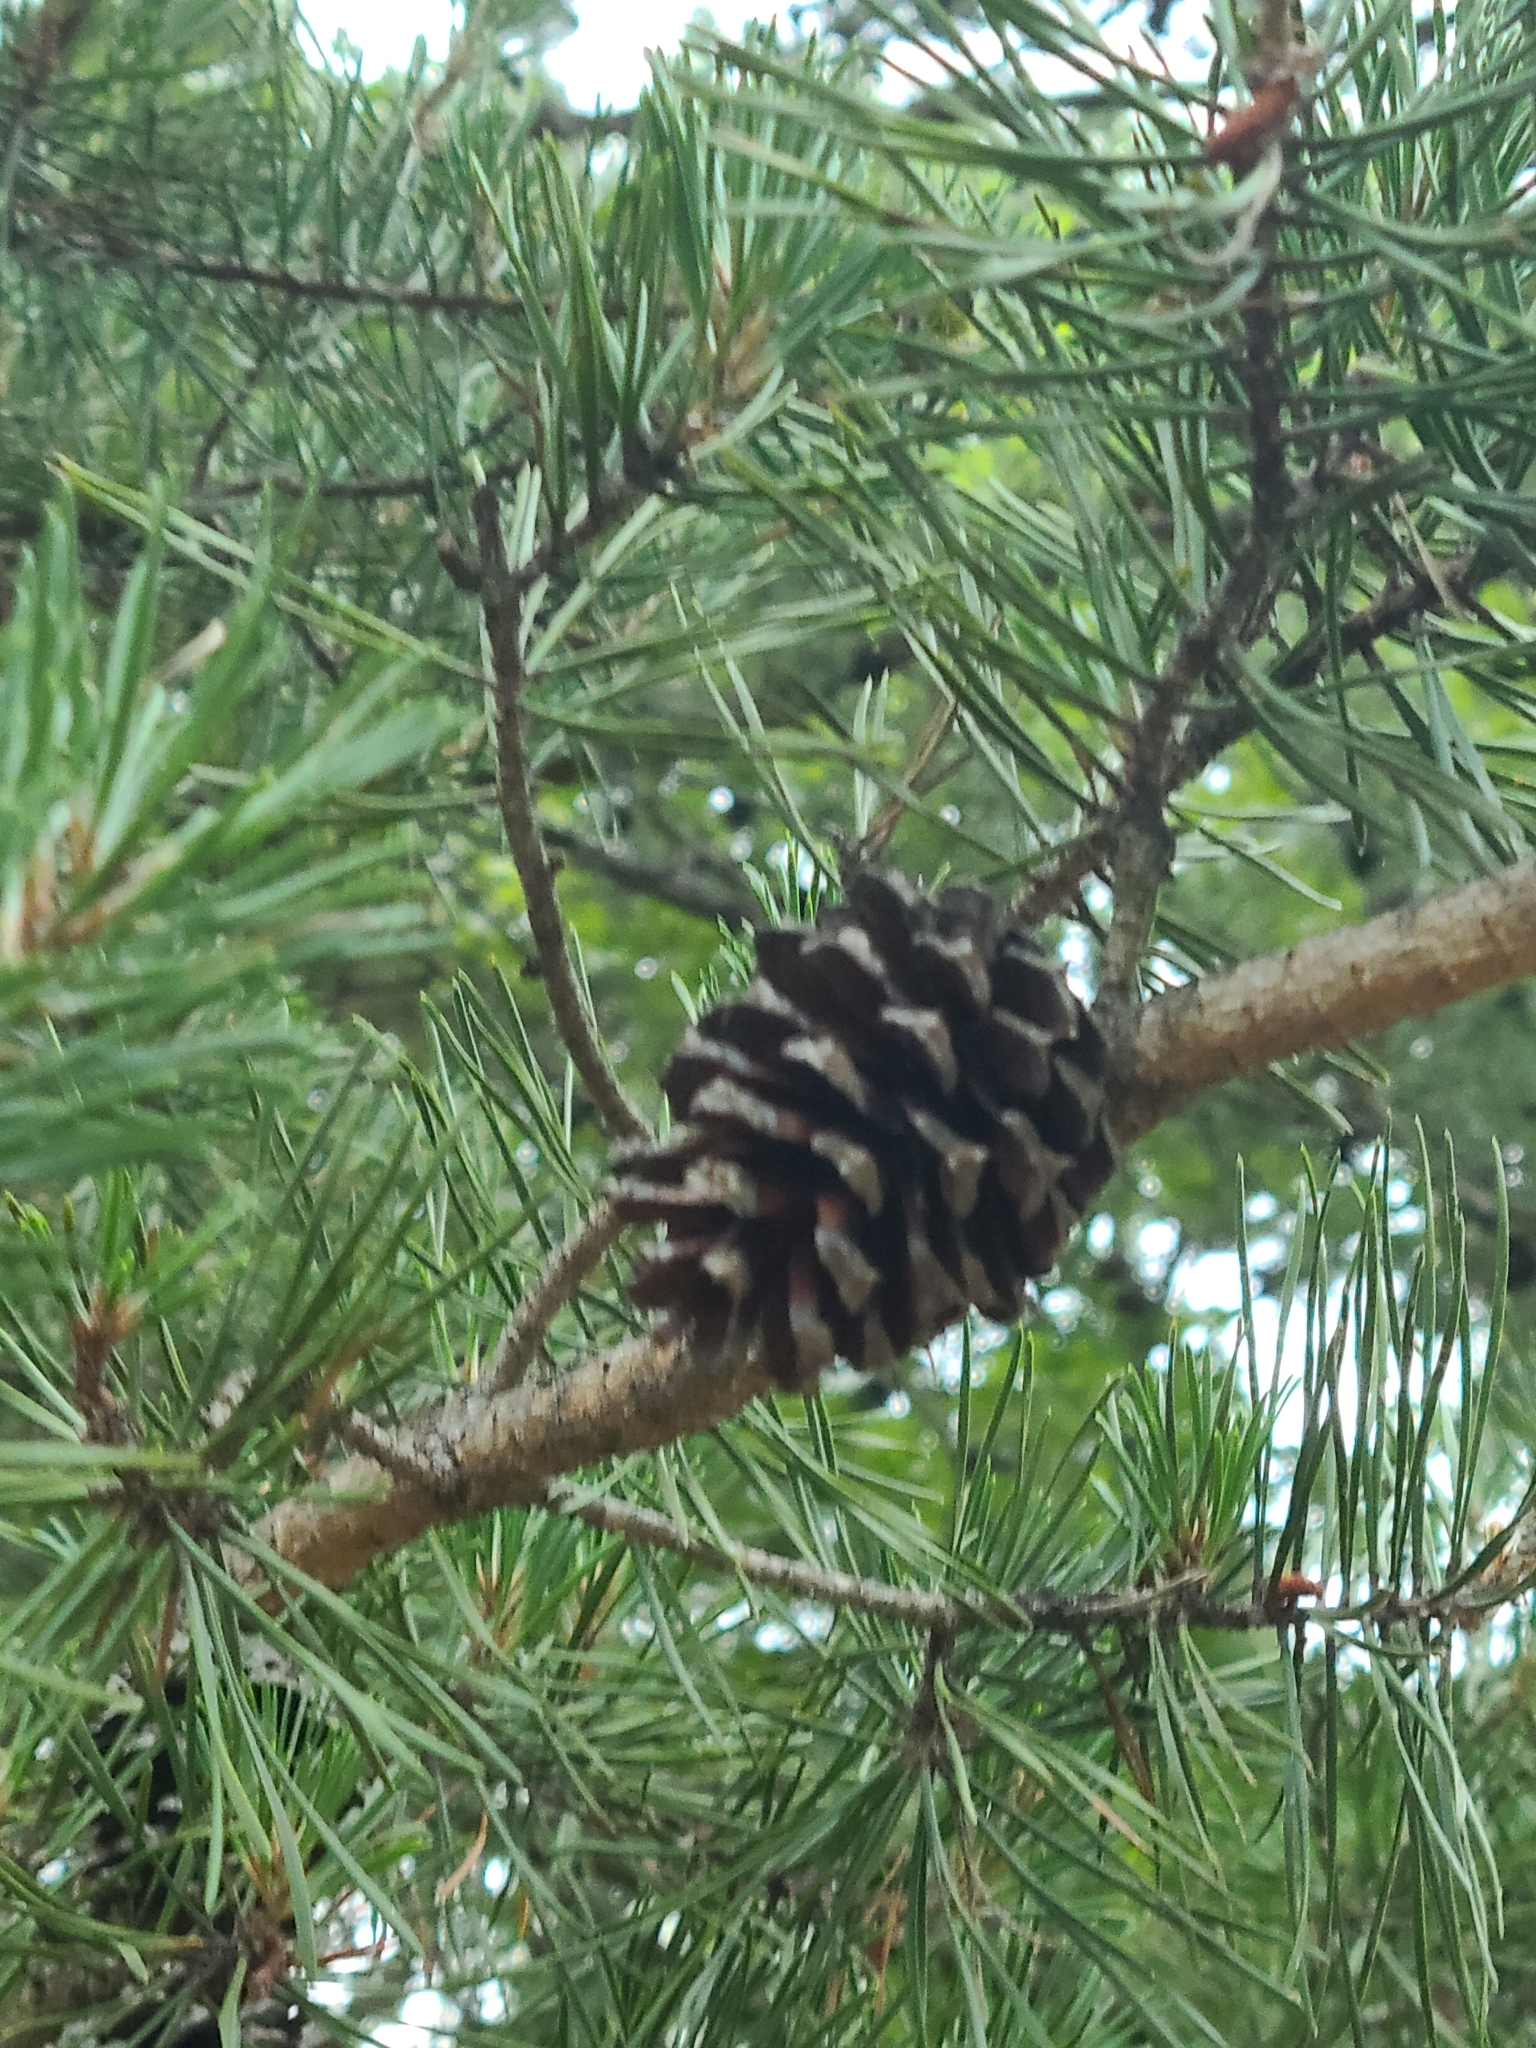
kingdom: Plantae
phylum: Tracheophyta
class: Pinopsida
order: Pinales
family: Pinaceae
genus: Pinus
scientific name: Pinus virginiana
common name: Scrub pine
